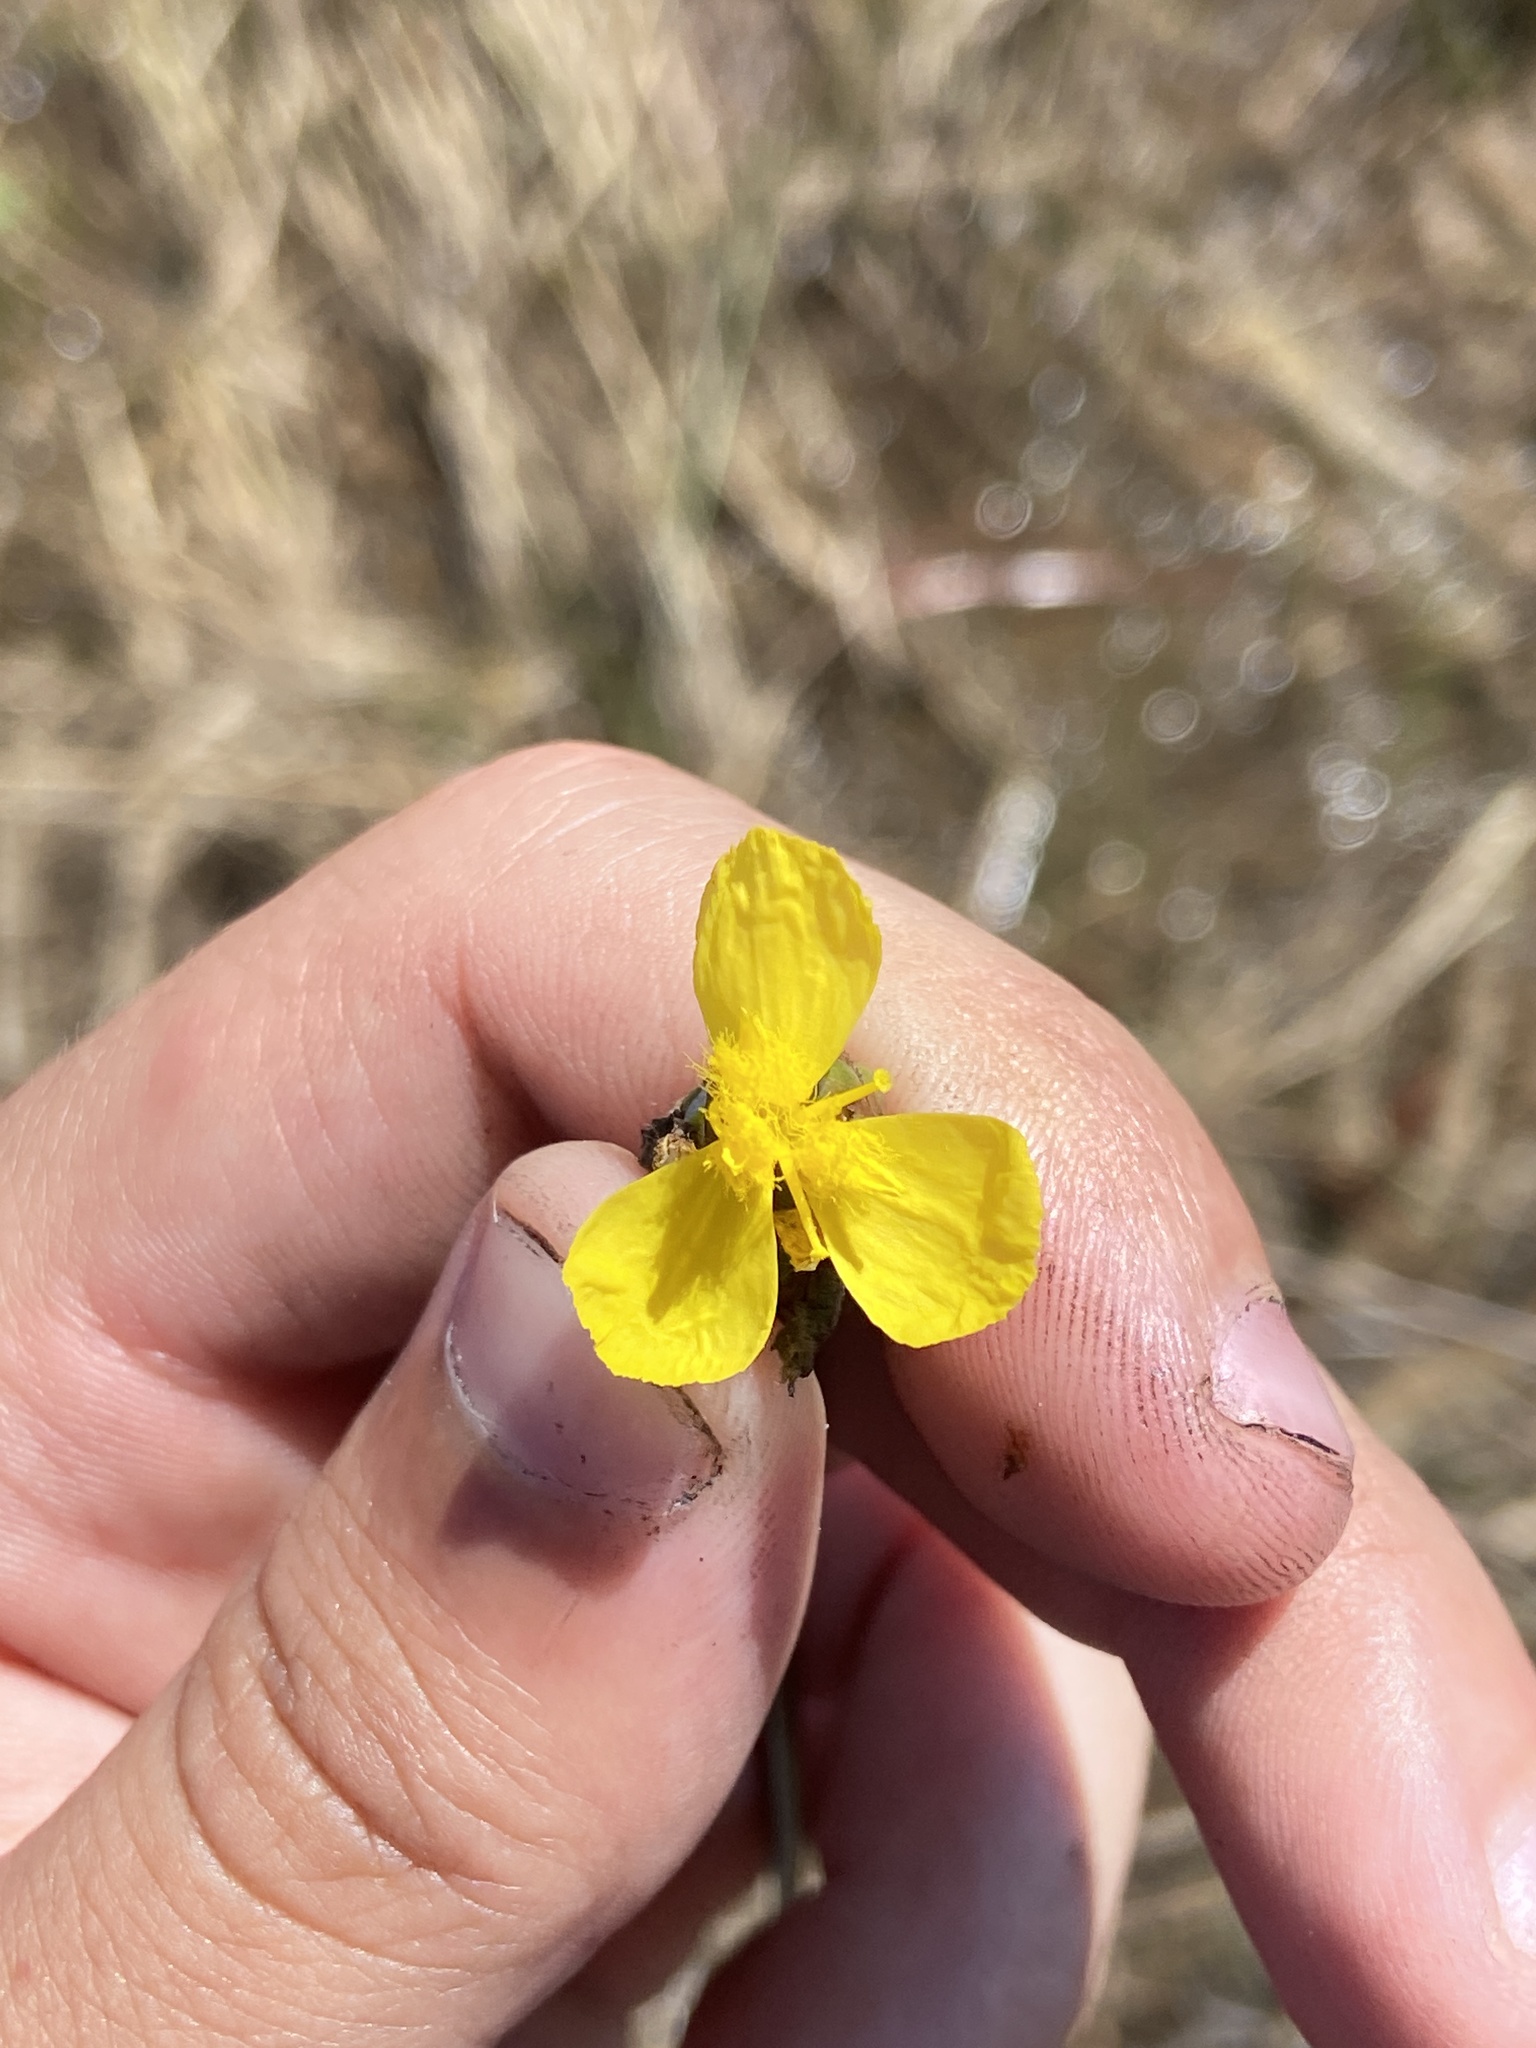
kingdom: Plantae
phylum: Tracheophyta
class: Liliopsida
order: Poales
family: Xyridaceae
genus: Xyris
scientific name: Xyris smalliana
